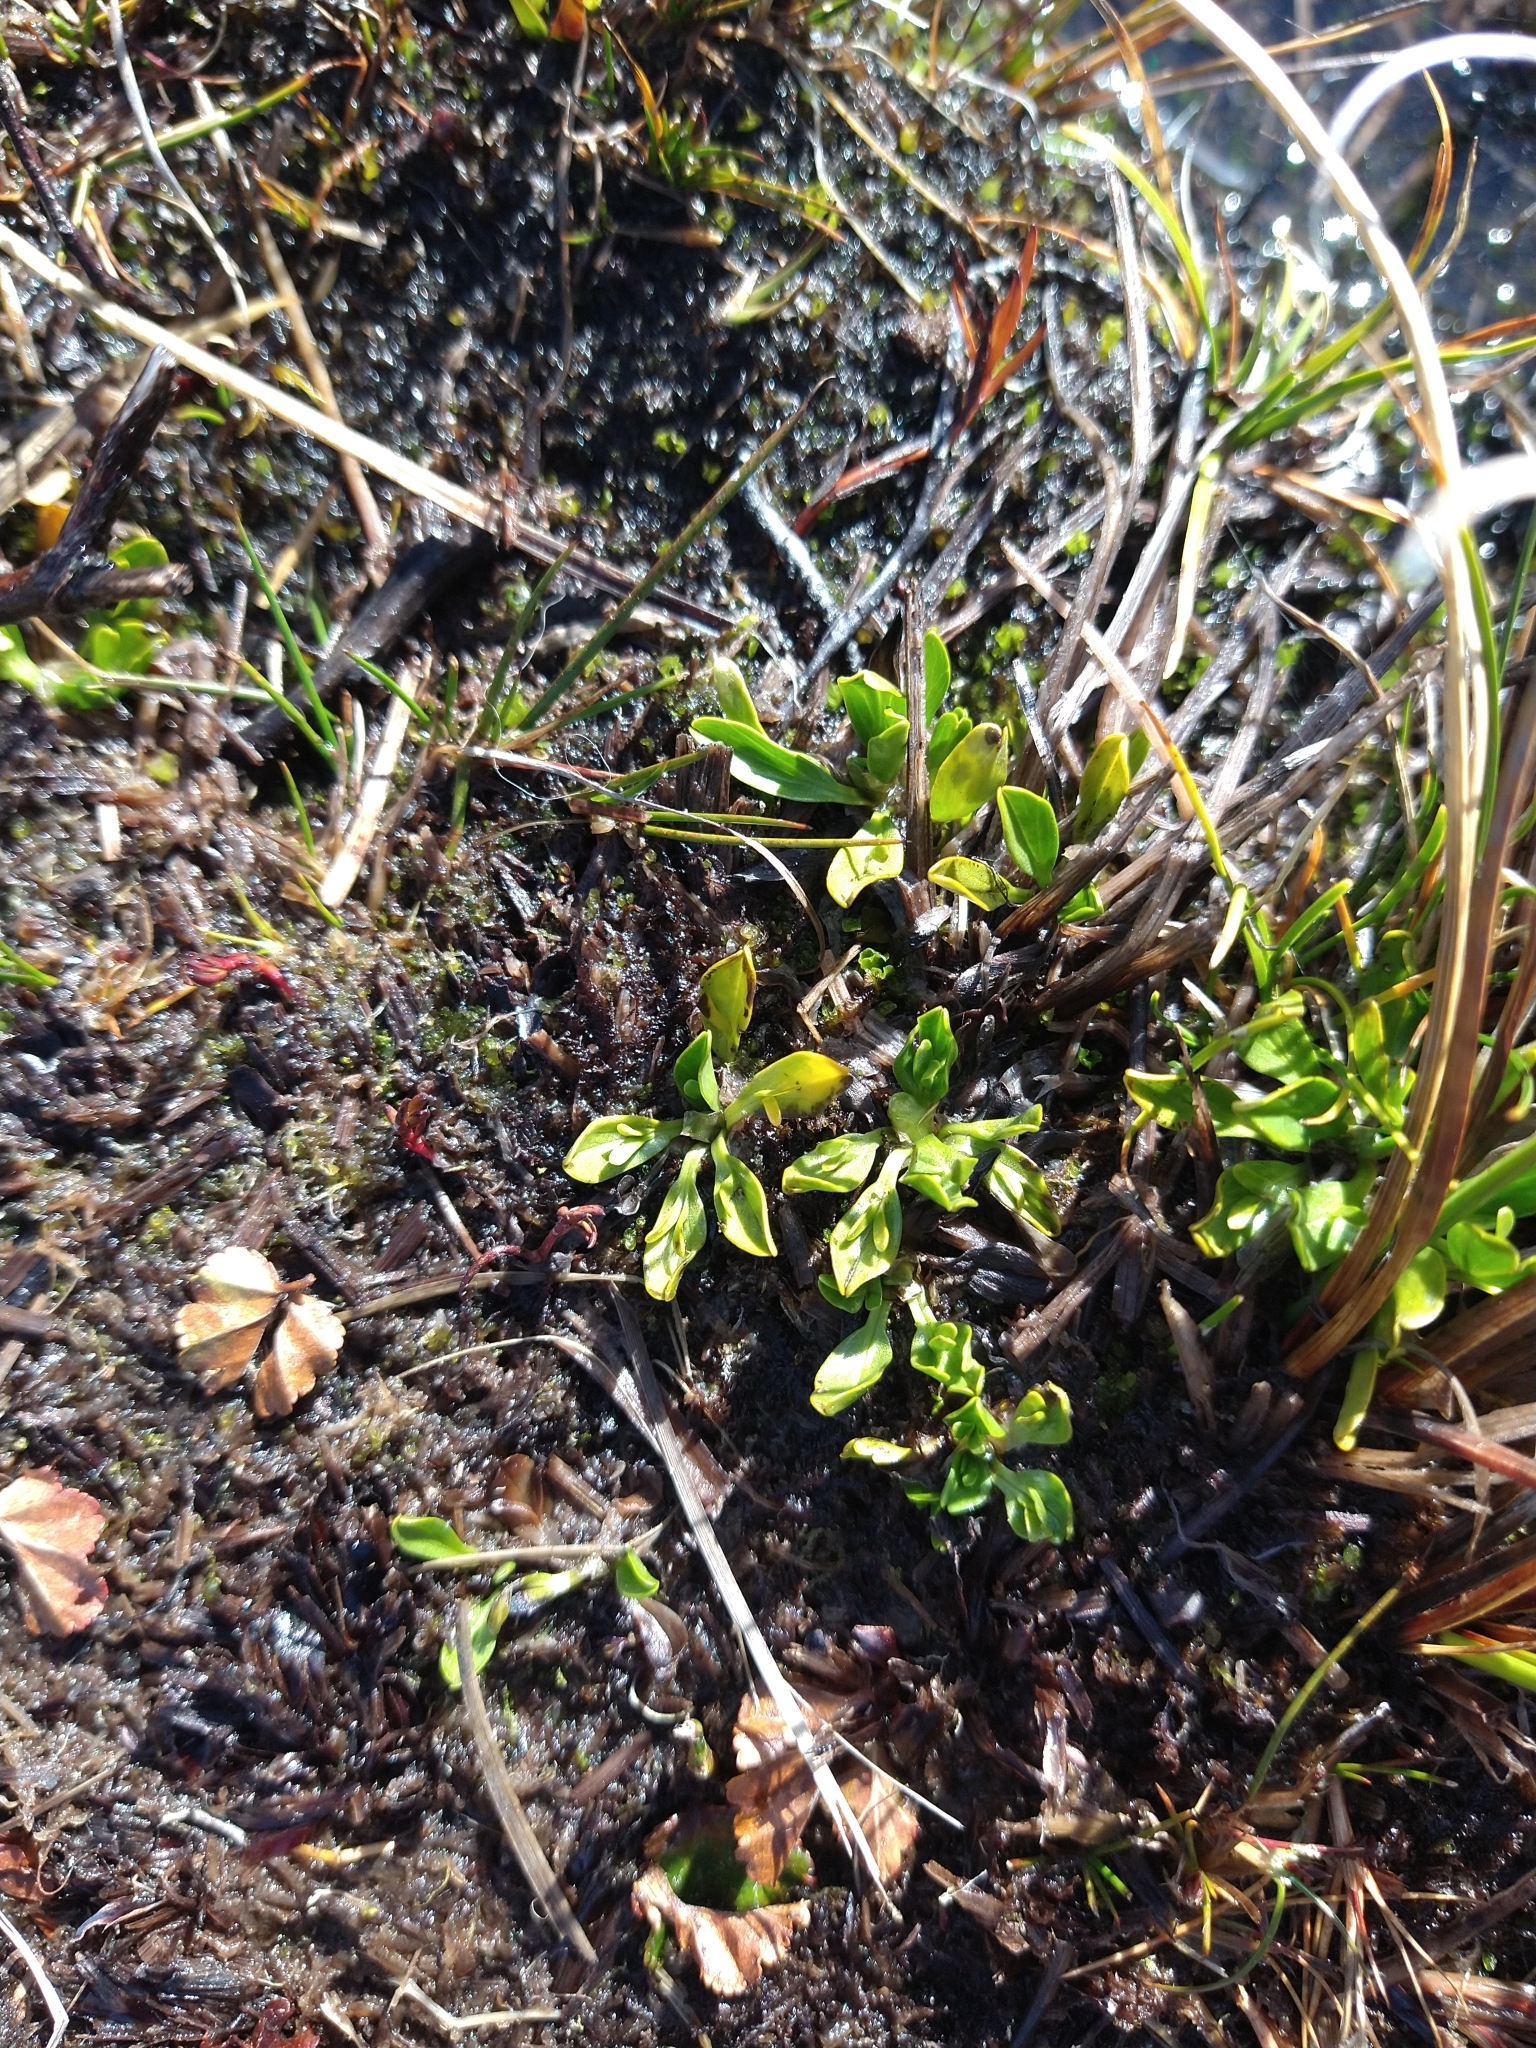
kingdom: Plantae
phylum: Tracheophyta
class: Magnoliopsida
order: Ranunculales
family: Ranunculaceae
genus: Caltha
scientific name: Caltha appendiculata
